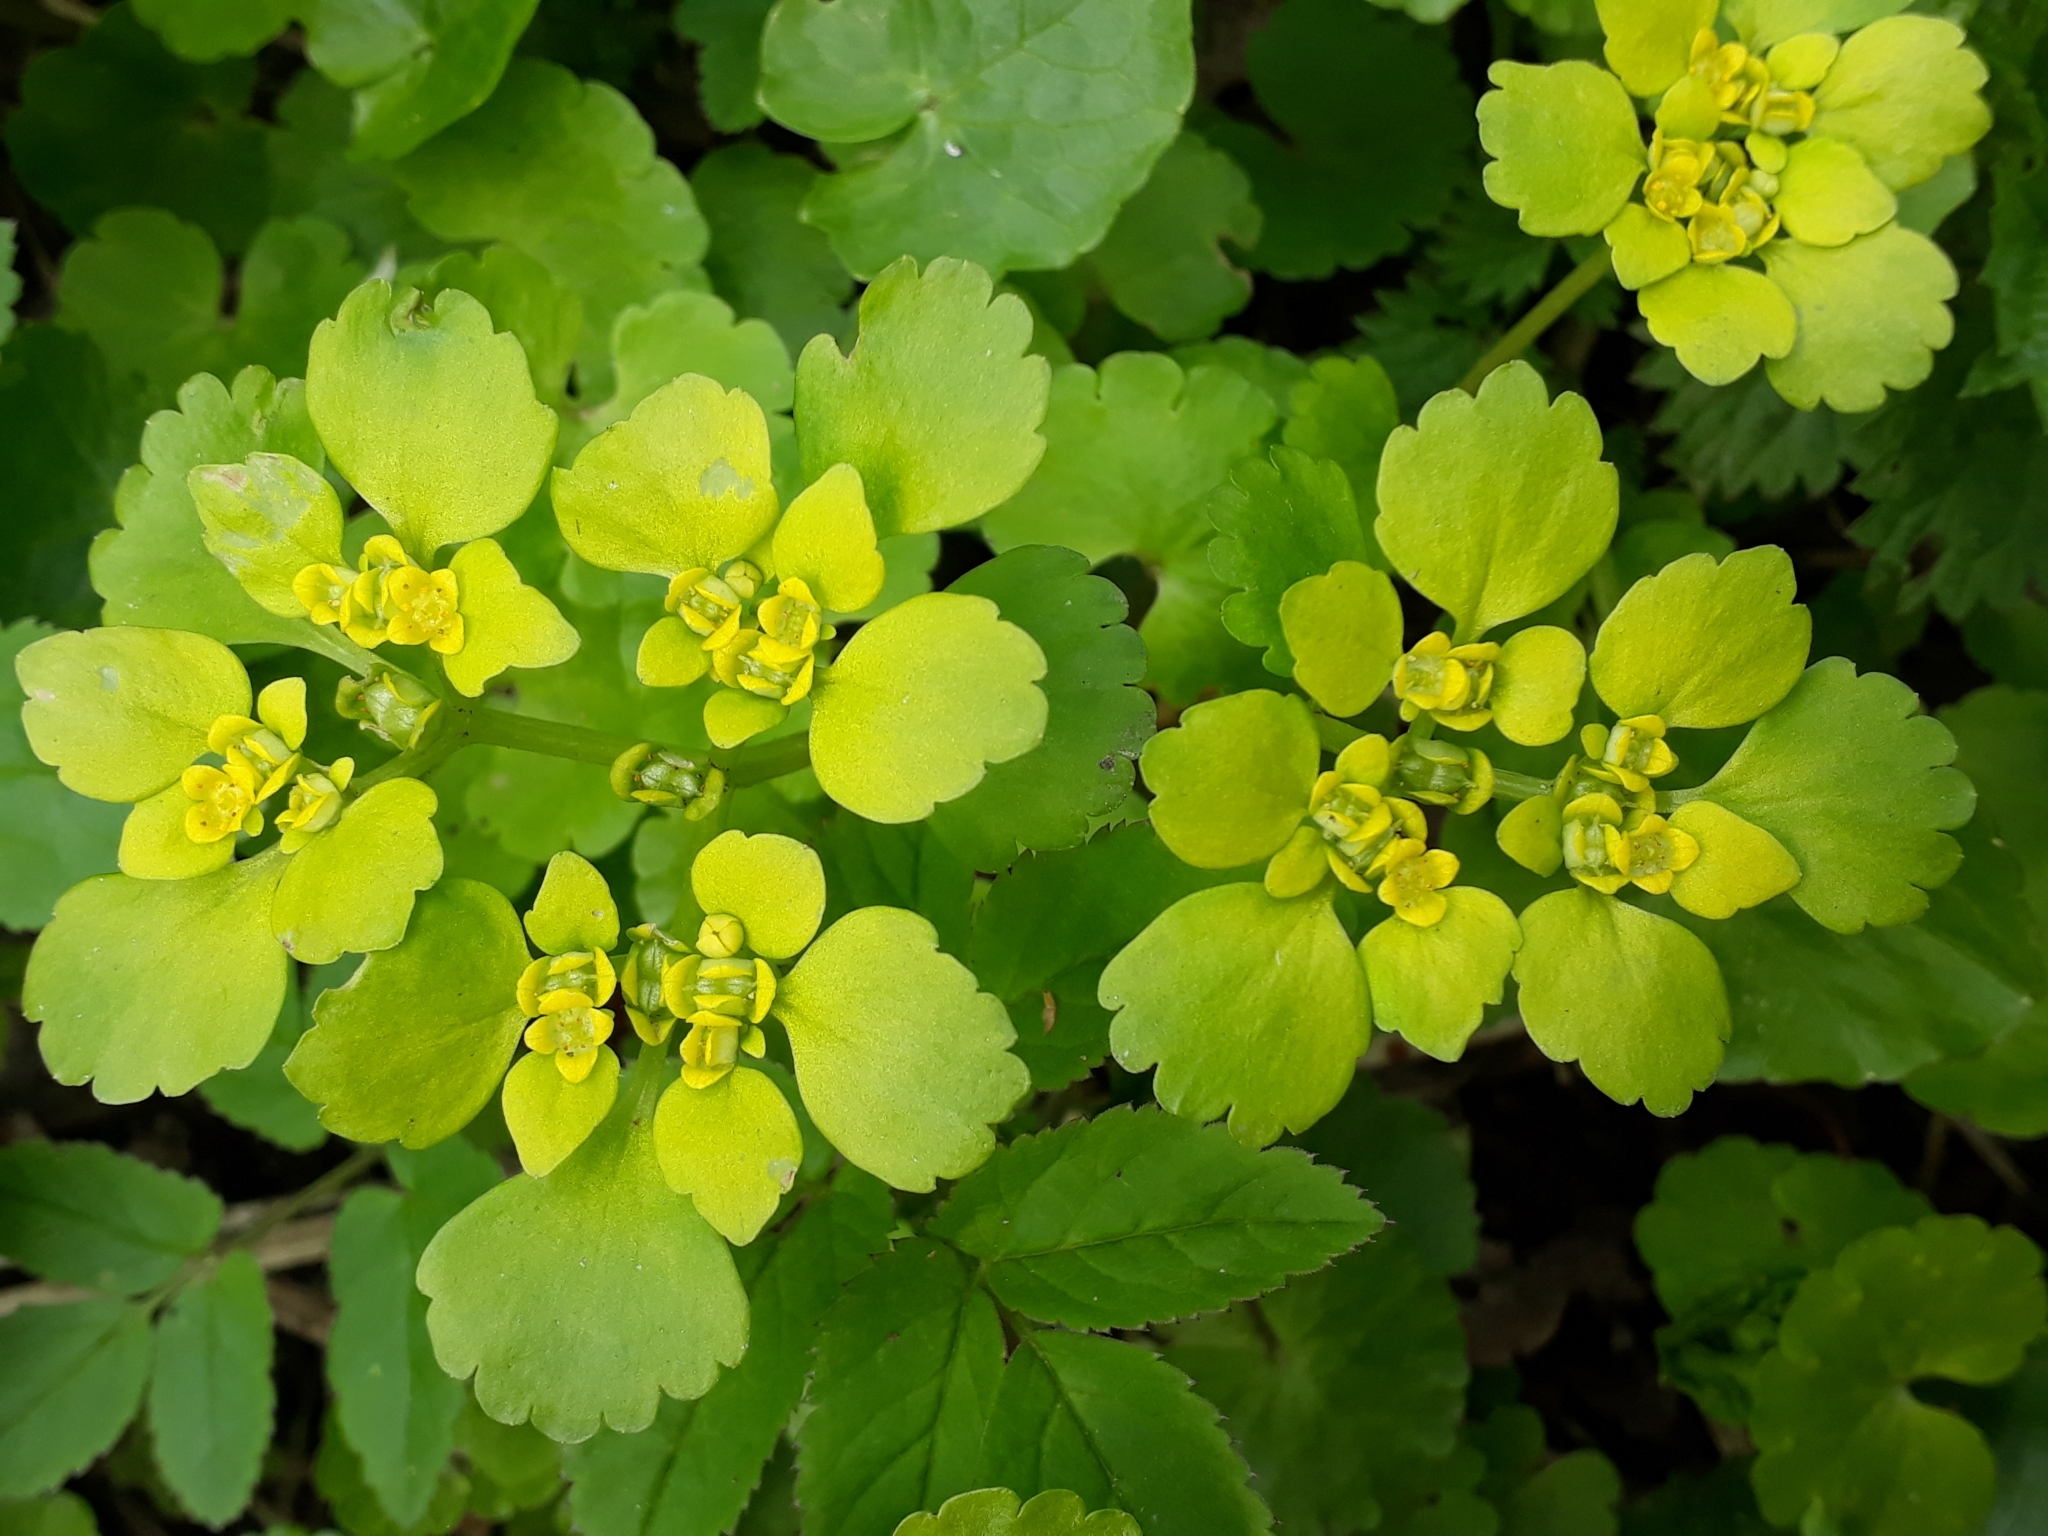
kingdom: Plantae
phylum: Tracheophyta
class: Magnoliopsida
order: Saxifragales
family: Saxifragaceae
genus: Chrysosplenium
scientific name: Chrysosplenium alternifolium
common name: Alternate-leaved golden-saxifrage
